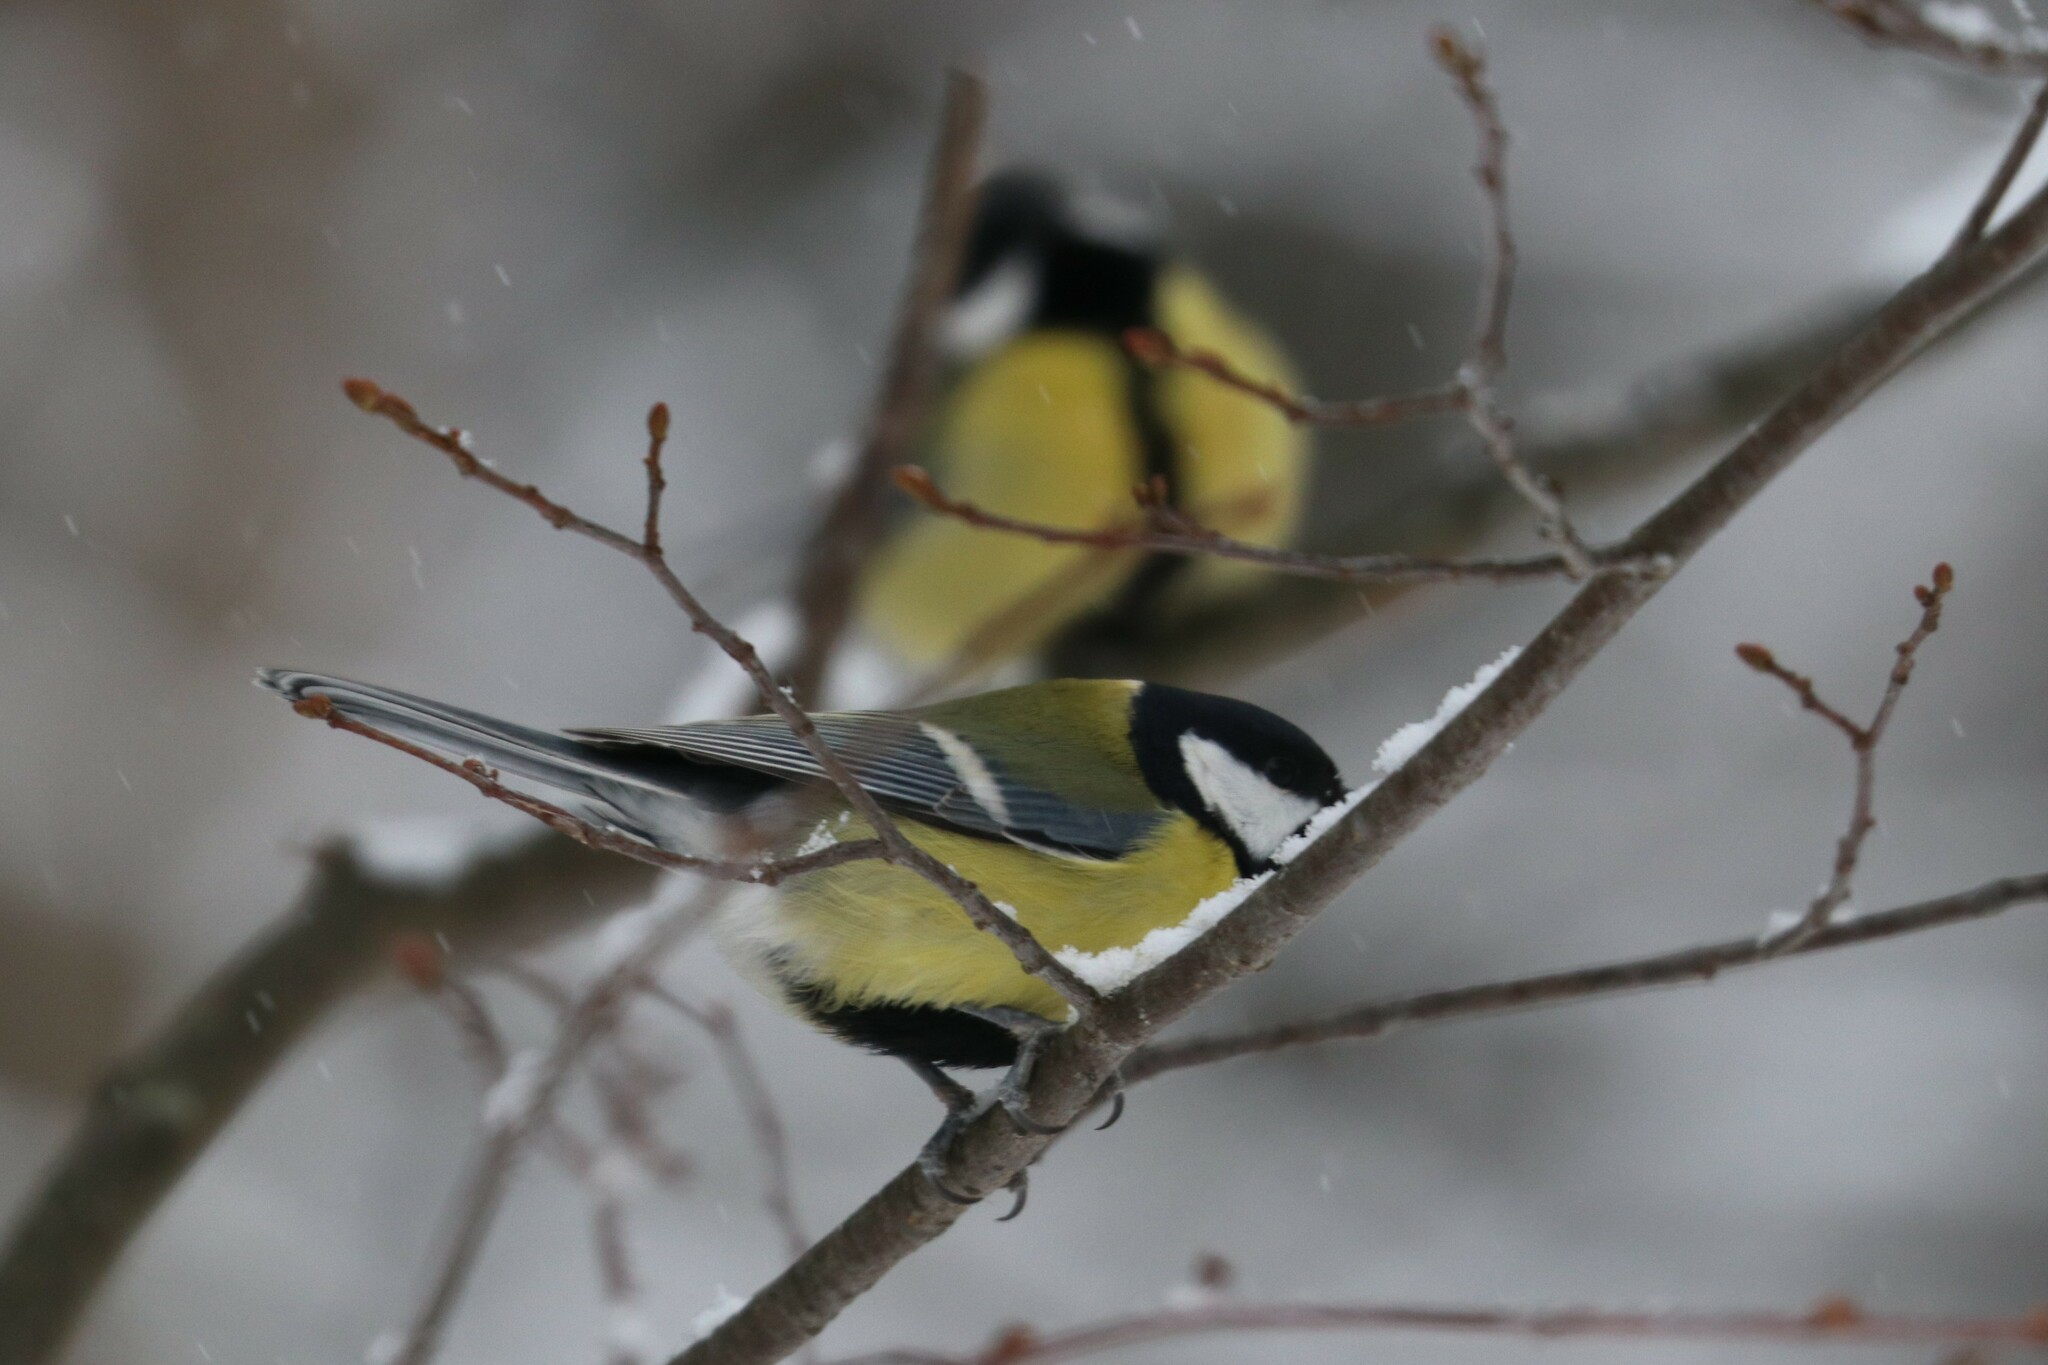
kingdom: Animalia
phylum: Chordata
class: Aves
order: Passeriformes
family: Paridae
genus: Parus
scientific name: Parus major
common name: Great tit
